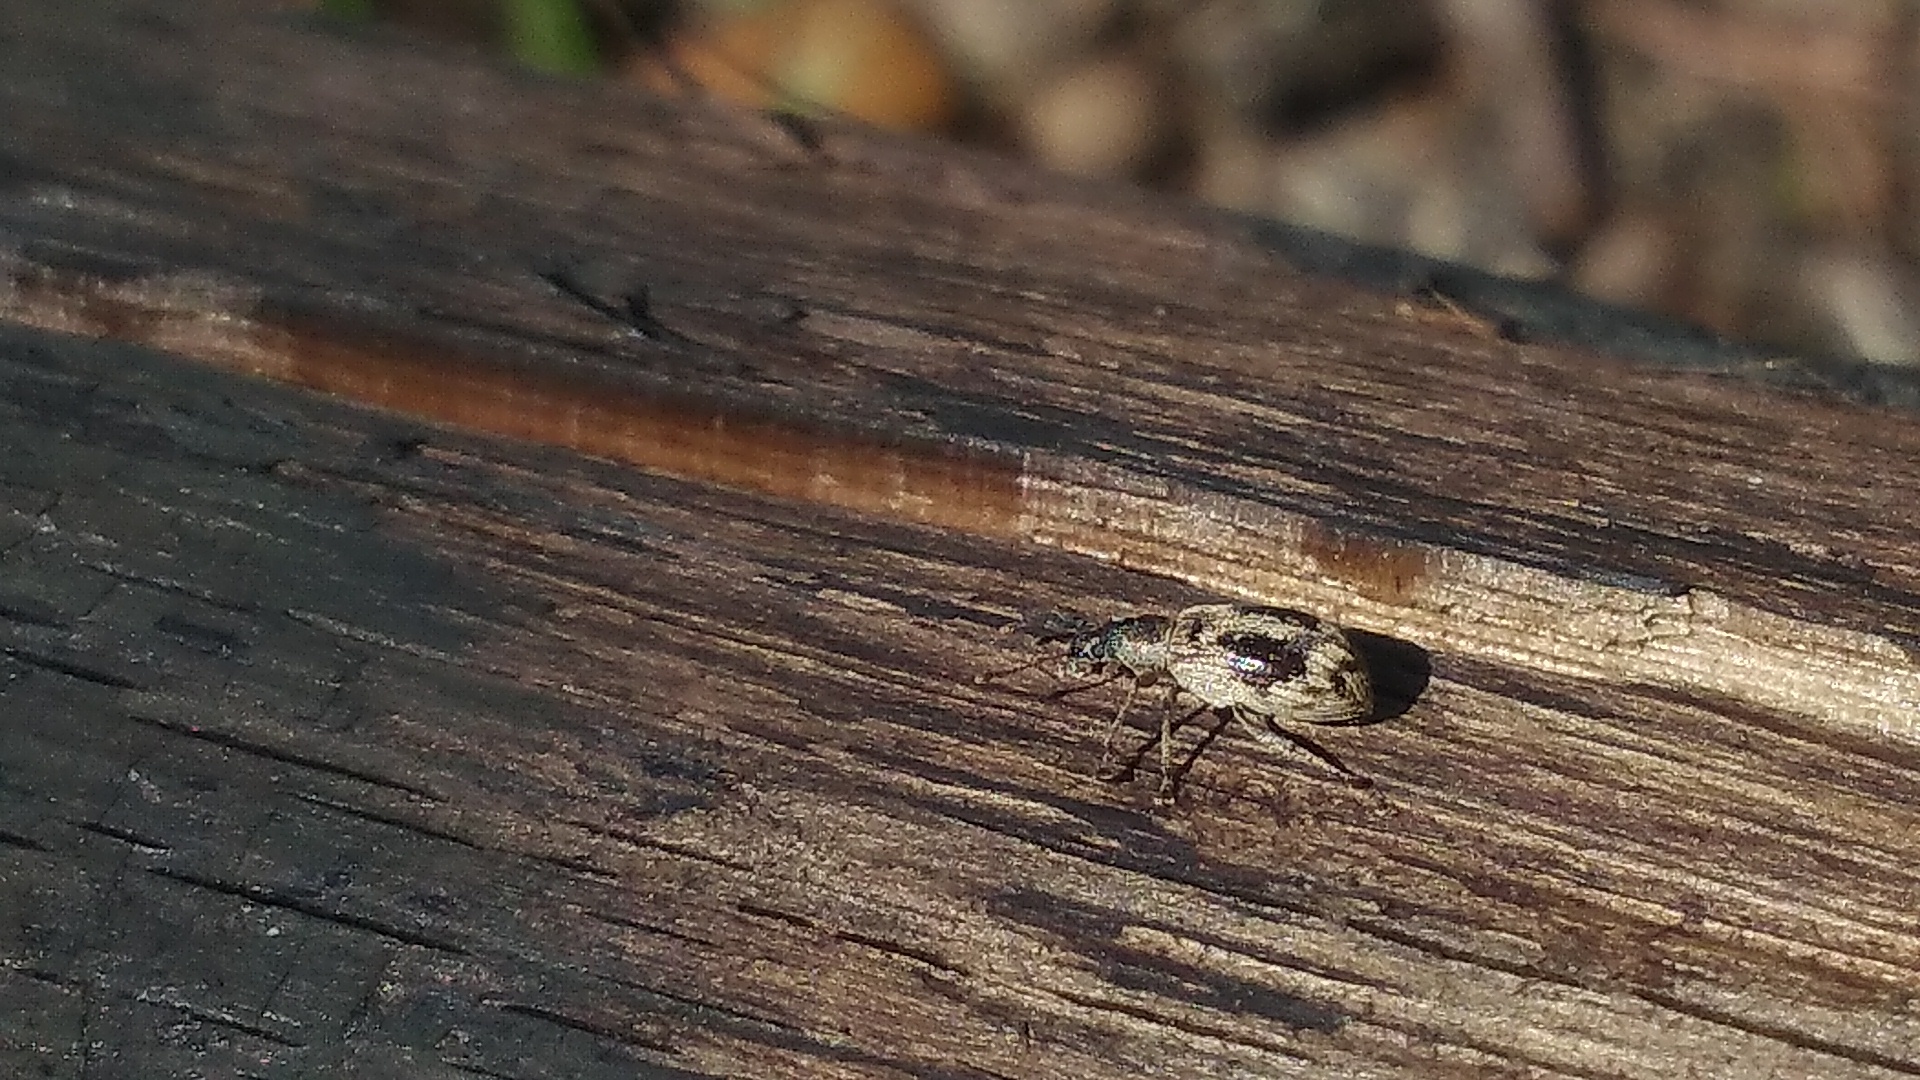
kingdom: Animalia
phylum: Arthropoda
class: Insecta
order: Coleoptera
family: Curculionidae
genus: Polydrusus
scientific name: Polydrusus tereticollis
